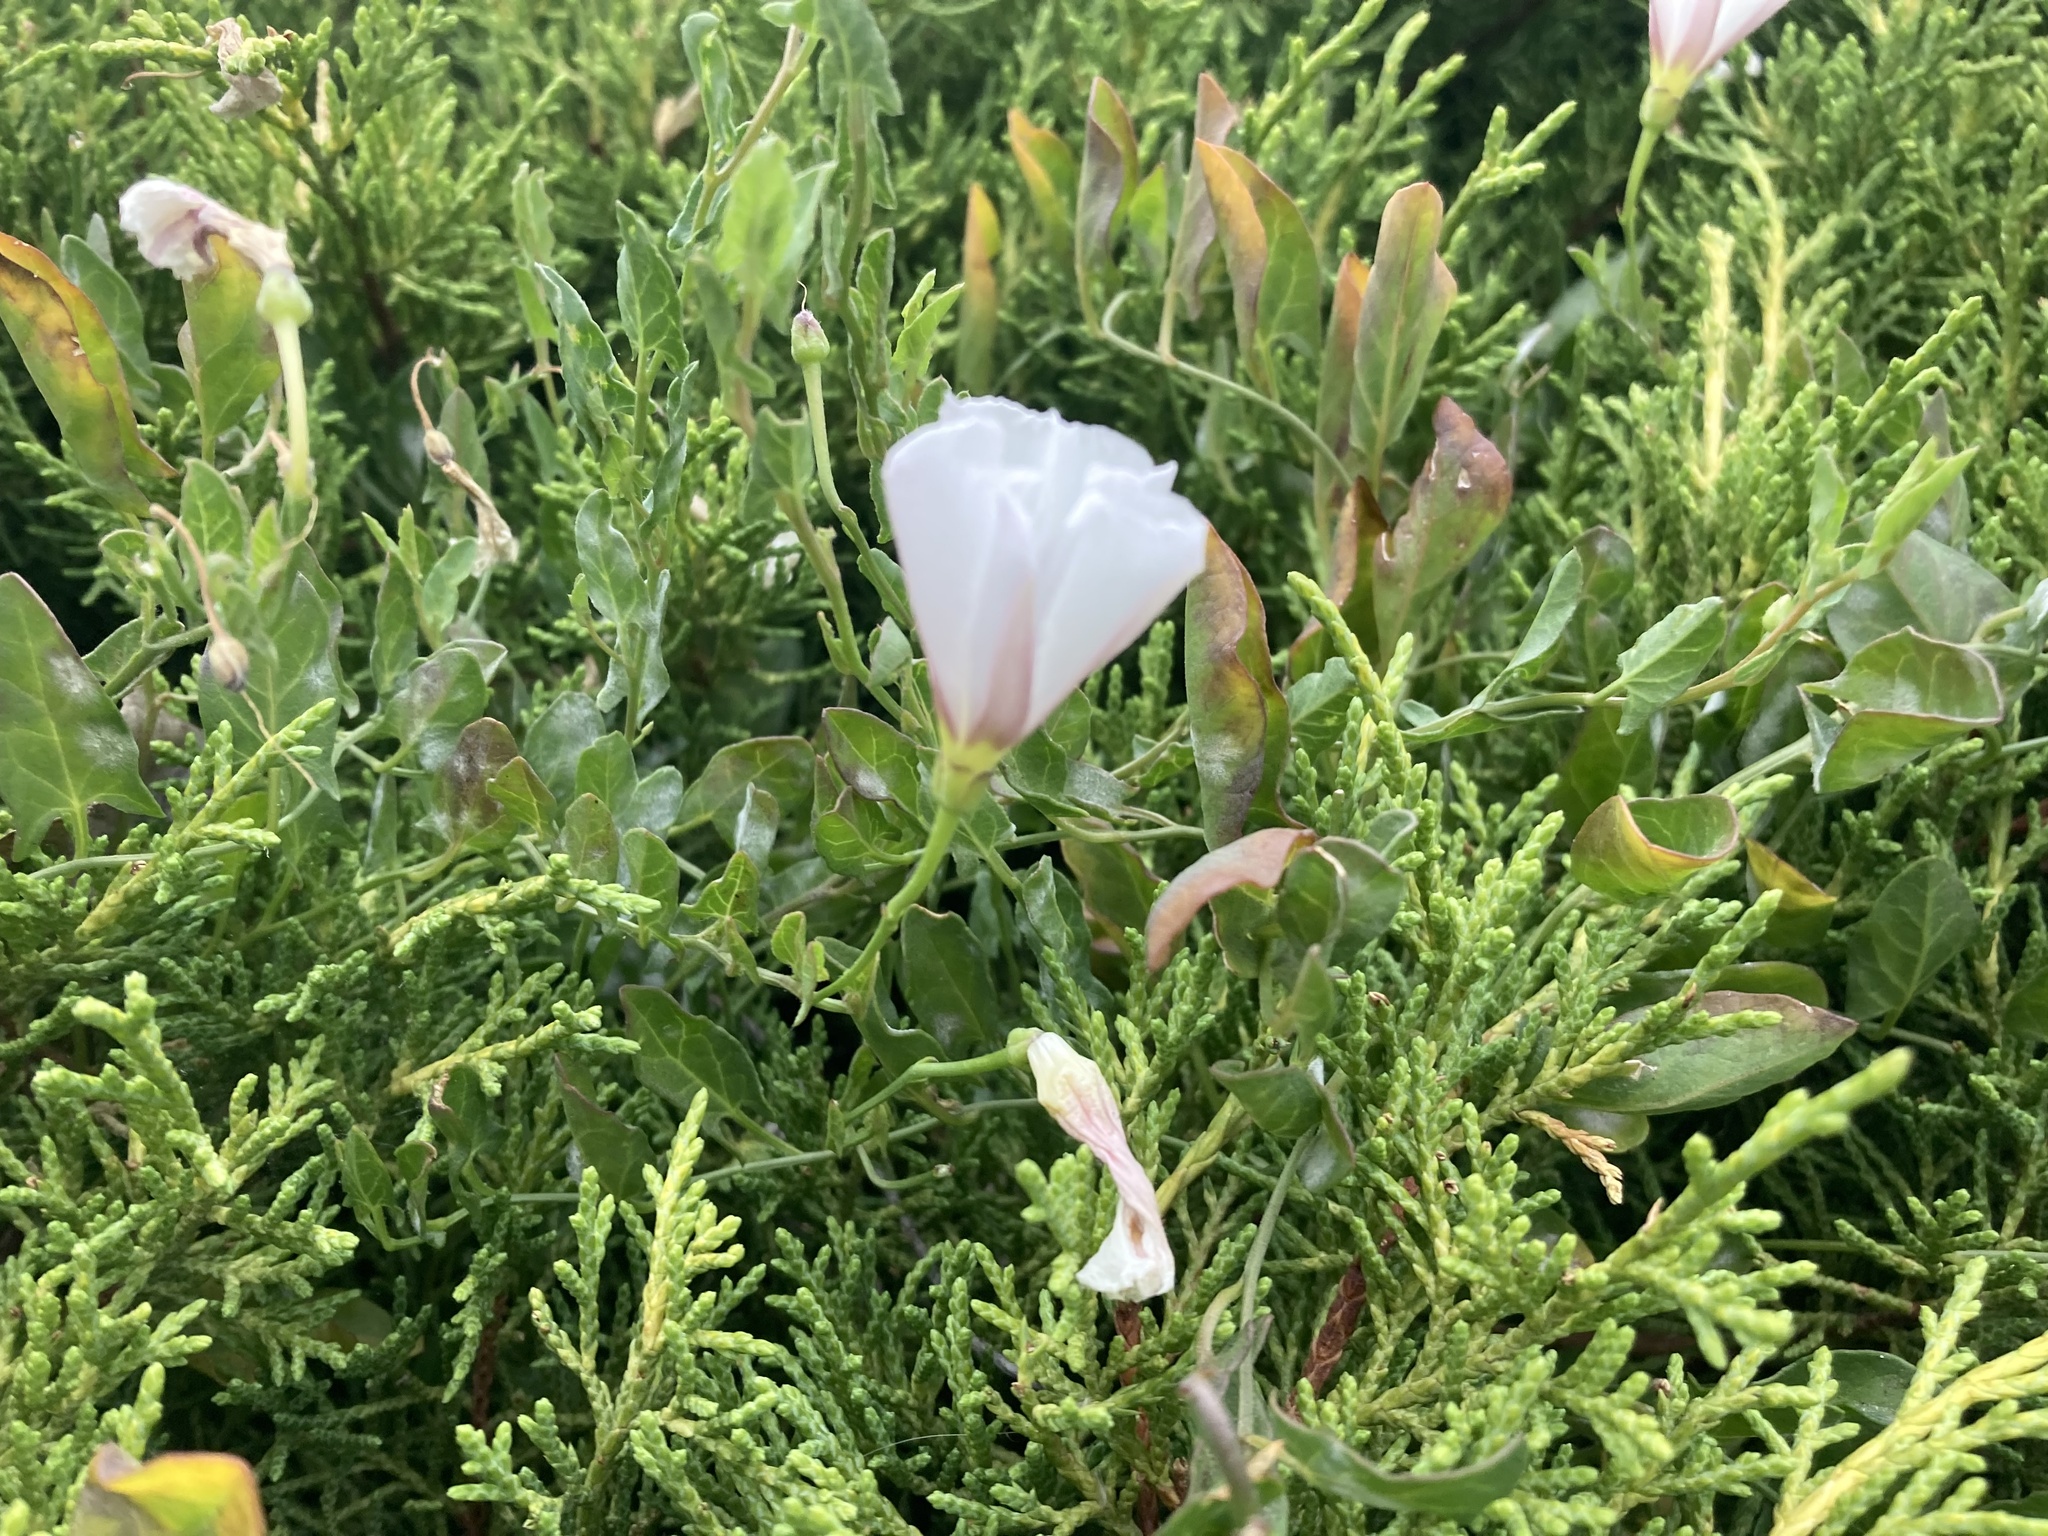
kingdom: Plantae
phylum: Tracheophyta
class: Magnoliopsida
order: Solanales
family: Convolvulaceae
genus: Convolvulus
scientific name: Convolvulus arvensis
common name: Field bindweed
